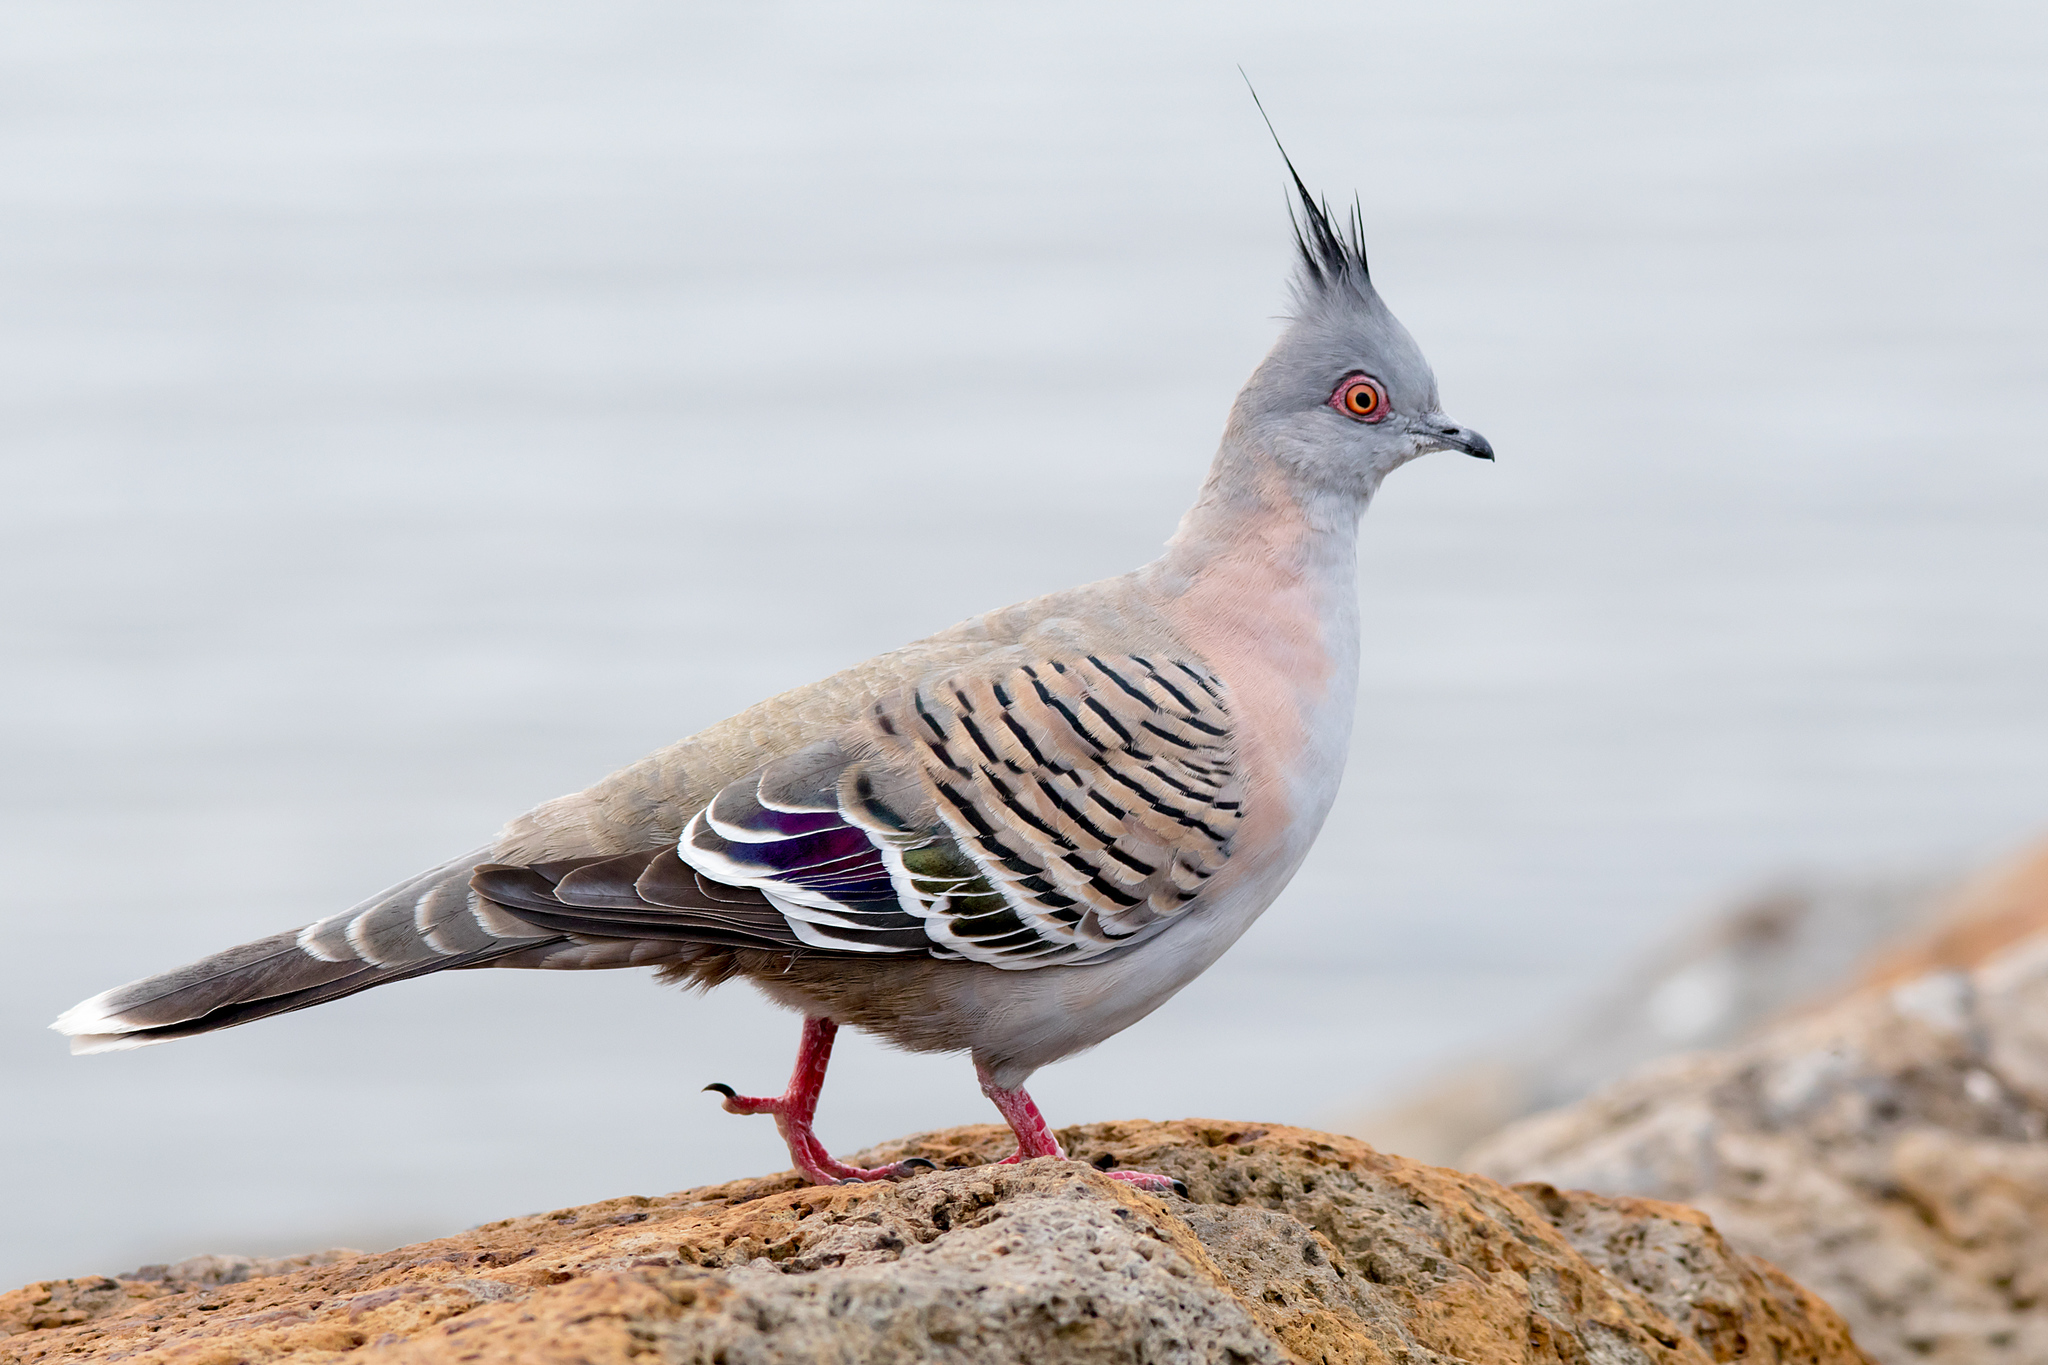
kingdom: Animalia
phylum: Chordata
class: Aves
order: Columbiformes
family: Columbidae
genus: Ocyphaps
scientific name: Ocyphaps lophotes
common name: Crested pigeon
